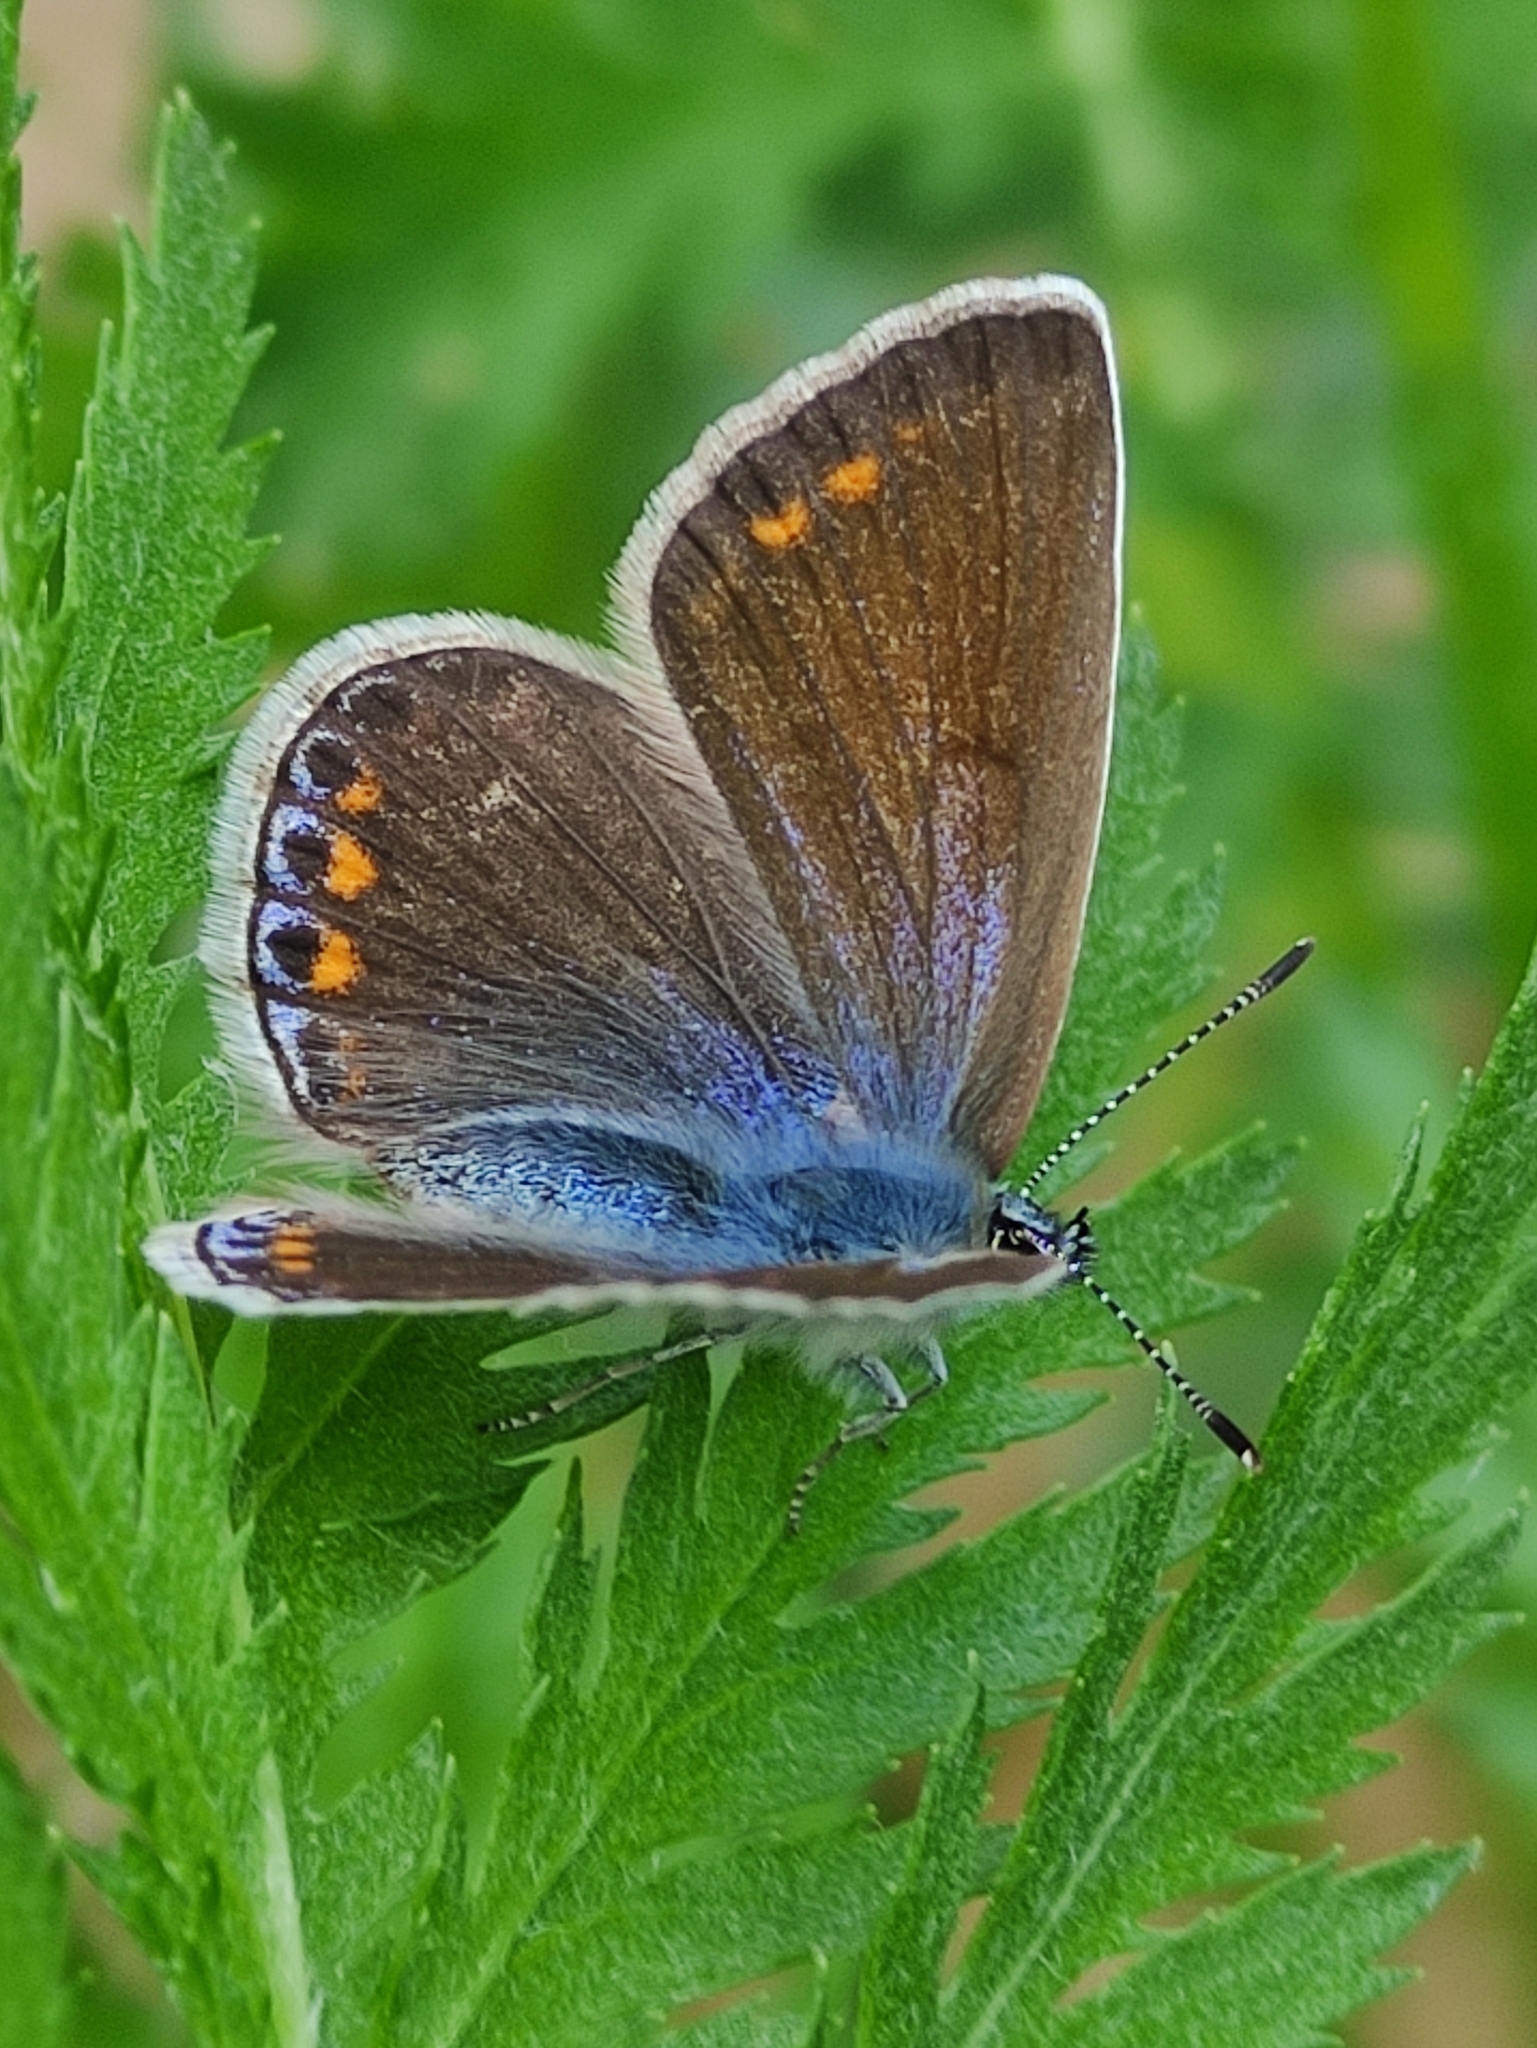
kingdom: Animalia
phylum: Arthropoda
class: Insecta
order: Lepidoptera
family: Lycaenidae
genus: Polyommatus
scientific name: Polyommatus icarus
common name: Common blue
